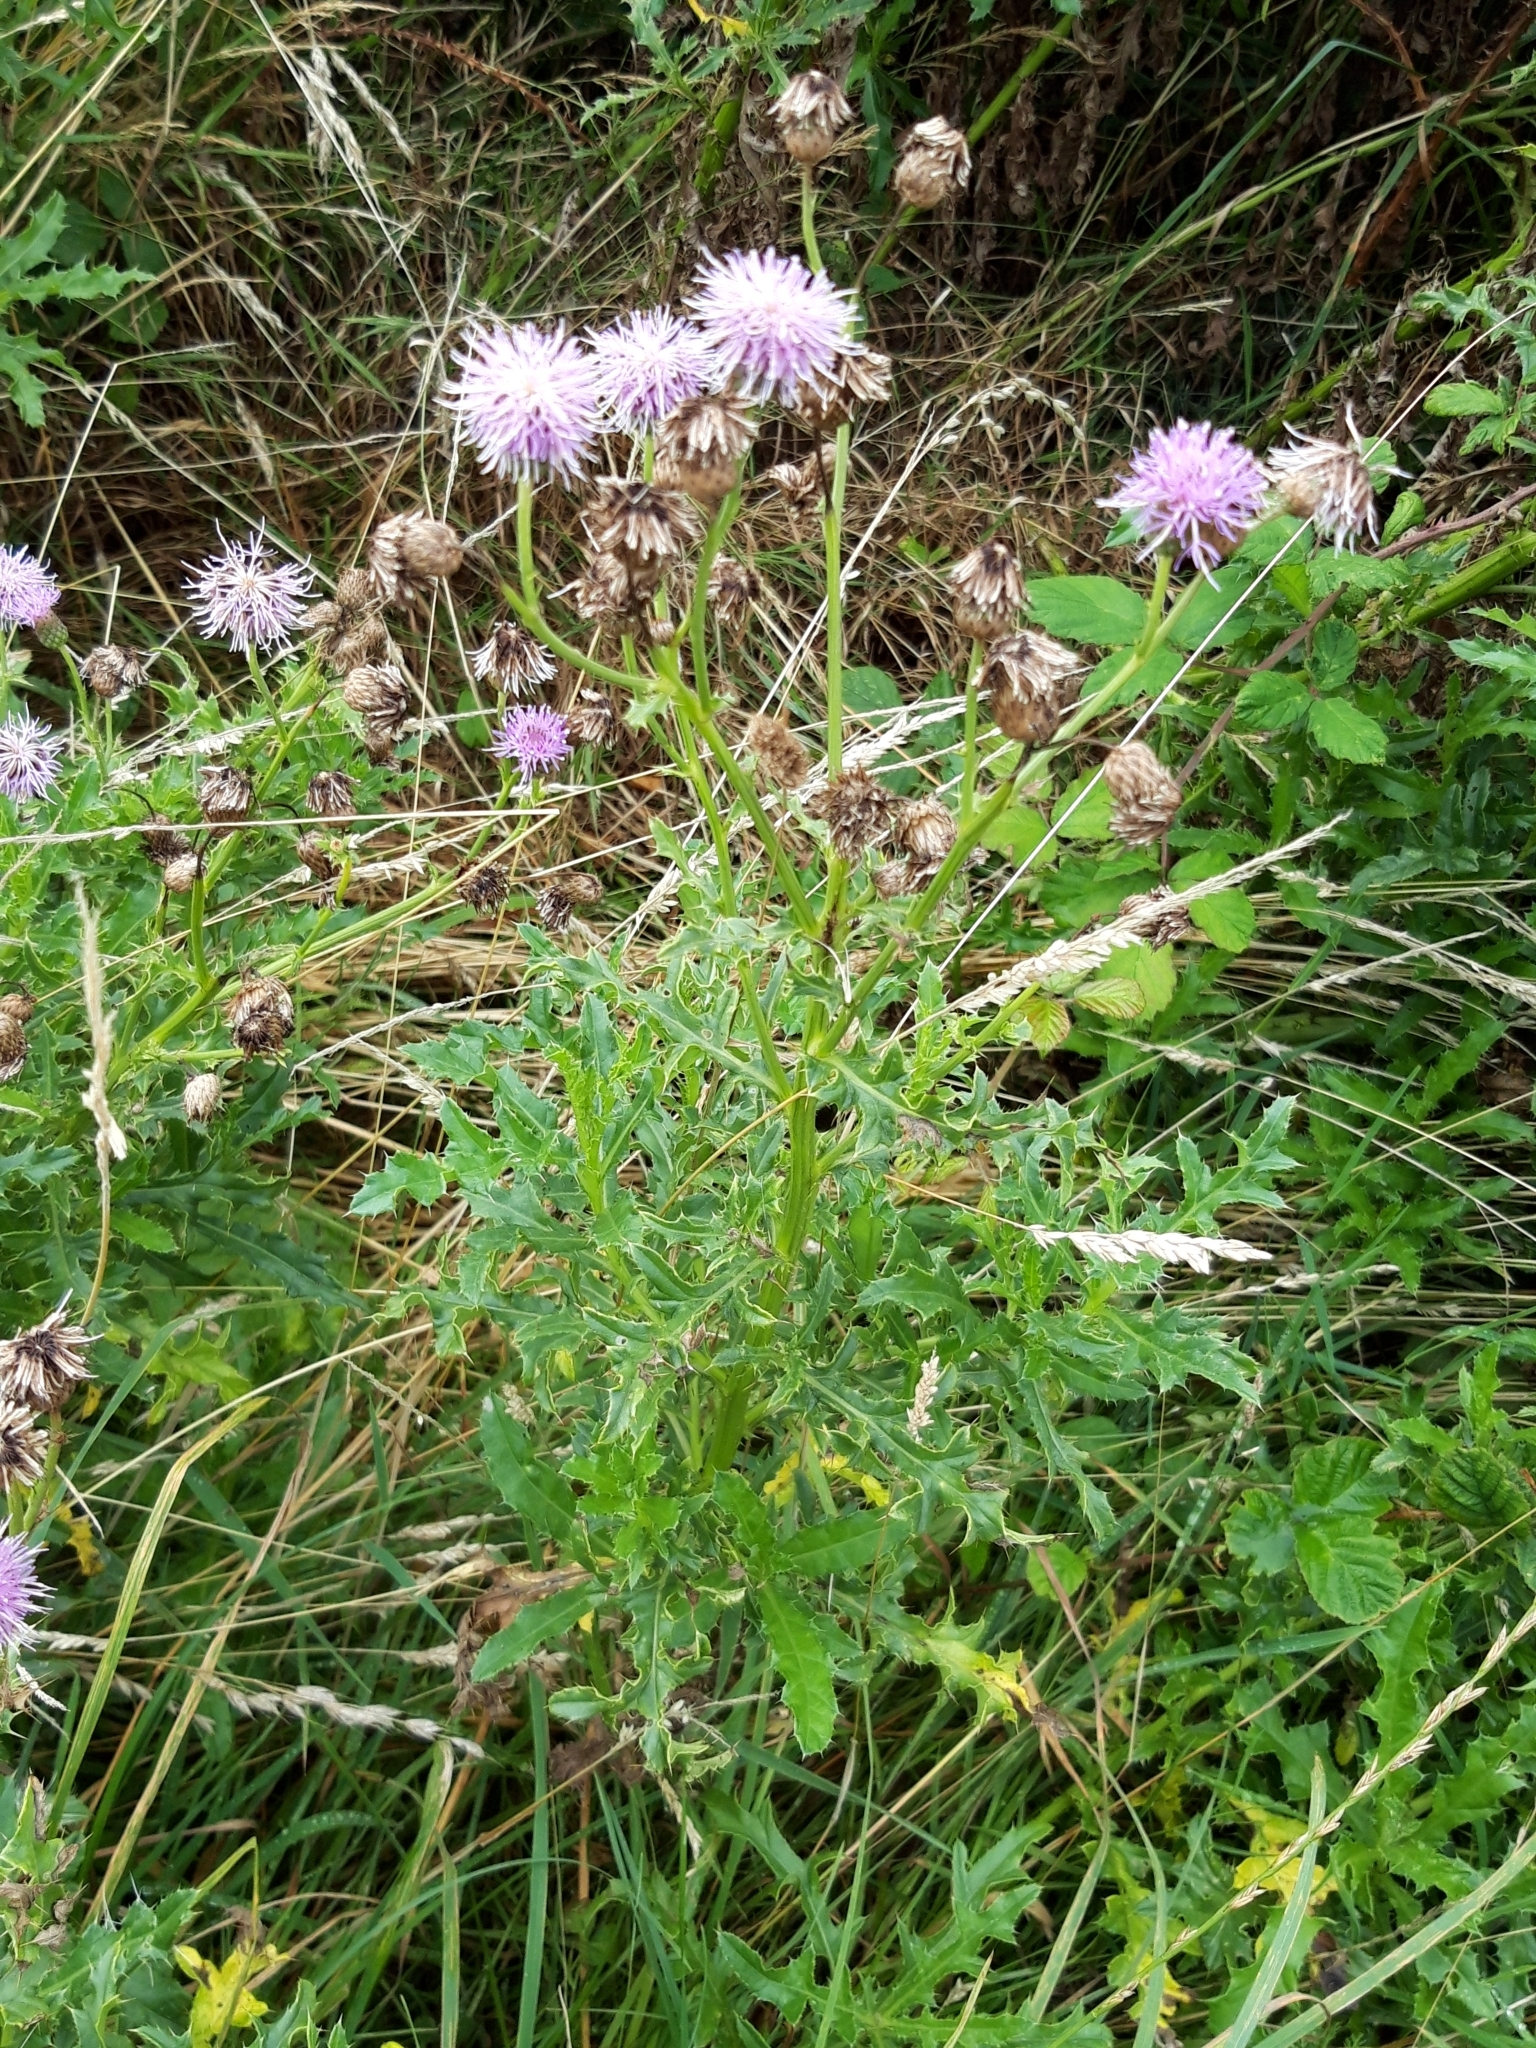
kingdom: Plantae
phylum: Tracheophyta
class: Magnoliopsida
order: Asterales
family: Asteraceae
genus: Cirsium
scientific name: Cirsium arvense
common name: Creeping thistle
